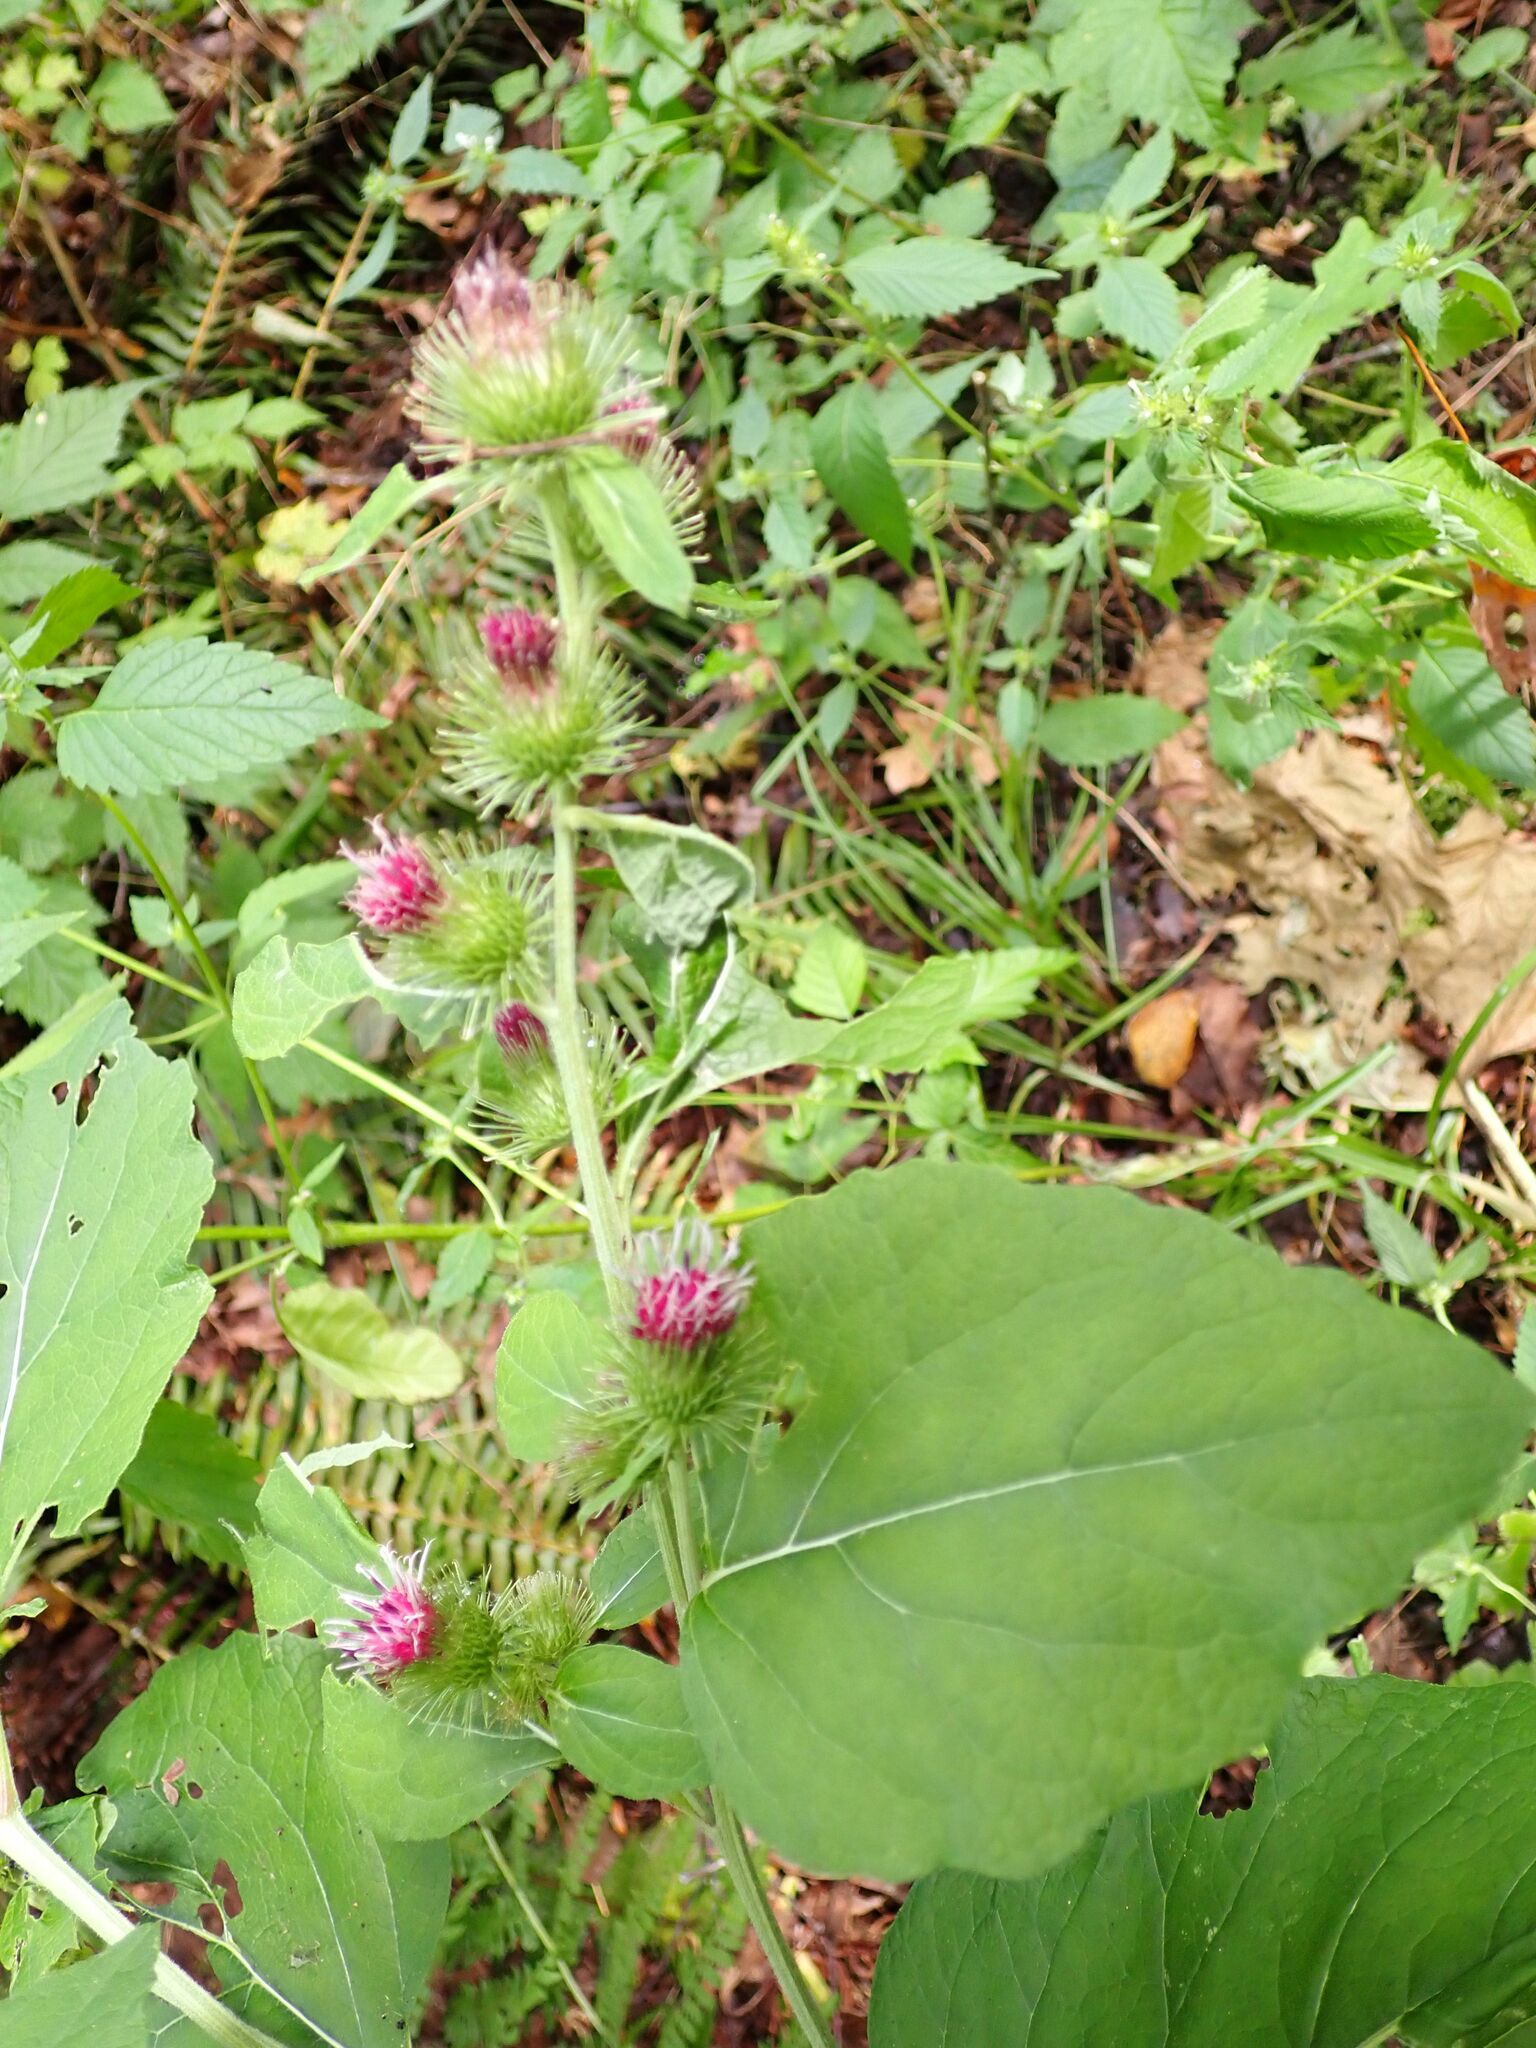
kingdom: Plantae
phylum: Tracheophyta
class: Magnoliopsida
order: Asterales
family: Asteraceae
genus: Arctium
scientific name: Arctium minus
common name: Lesser burdock
